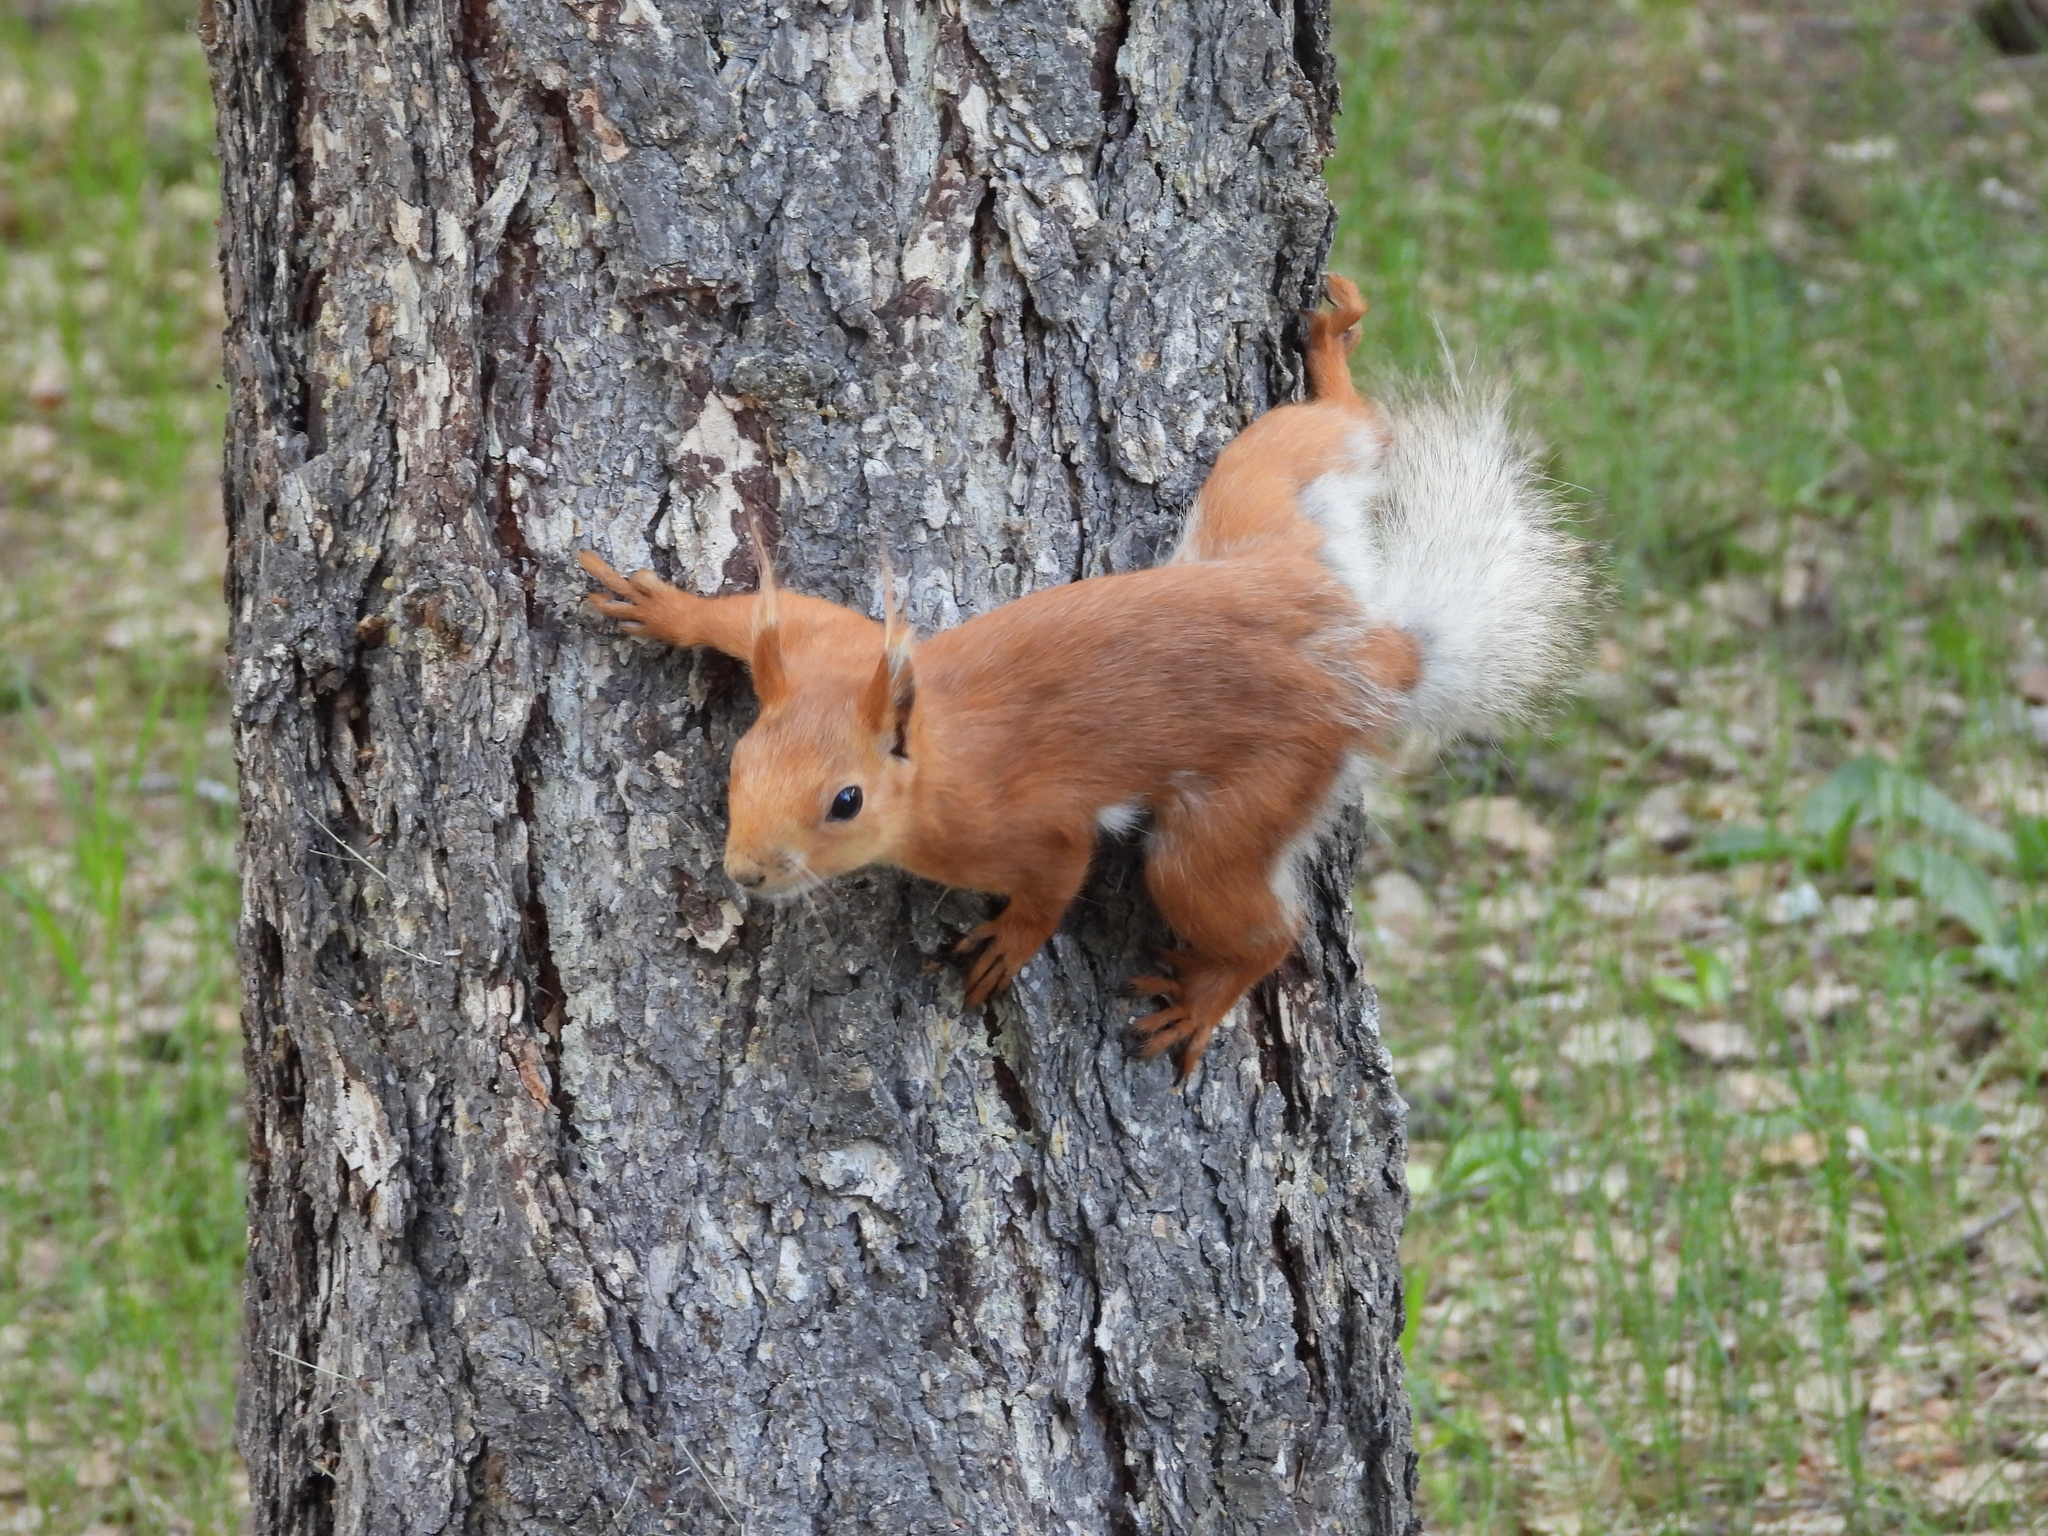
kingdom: Animalia
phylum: Chordata
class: Mammalia
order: Rodentia
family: Sciuridae
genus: Sciurus
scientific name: Sciurus vulgaris
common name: Eurasian red squirrel
